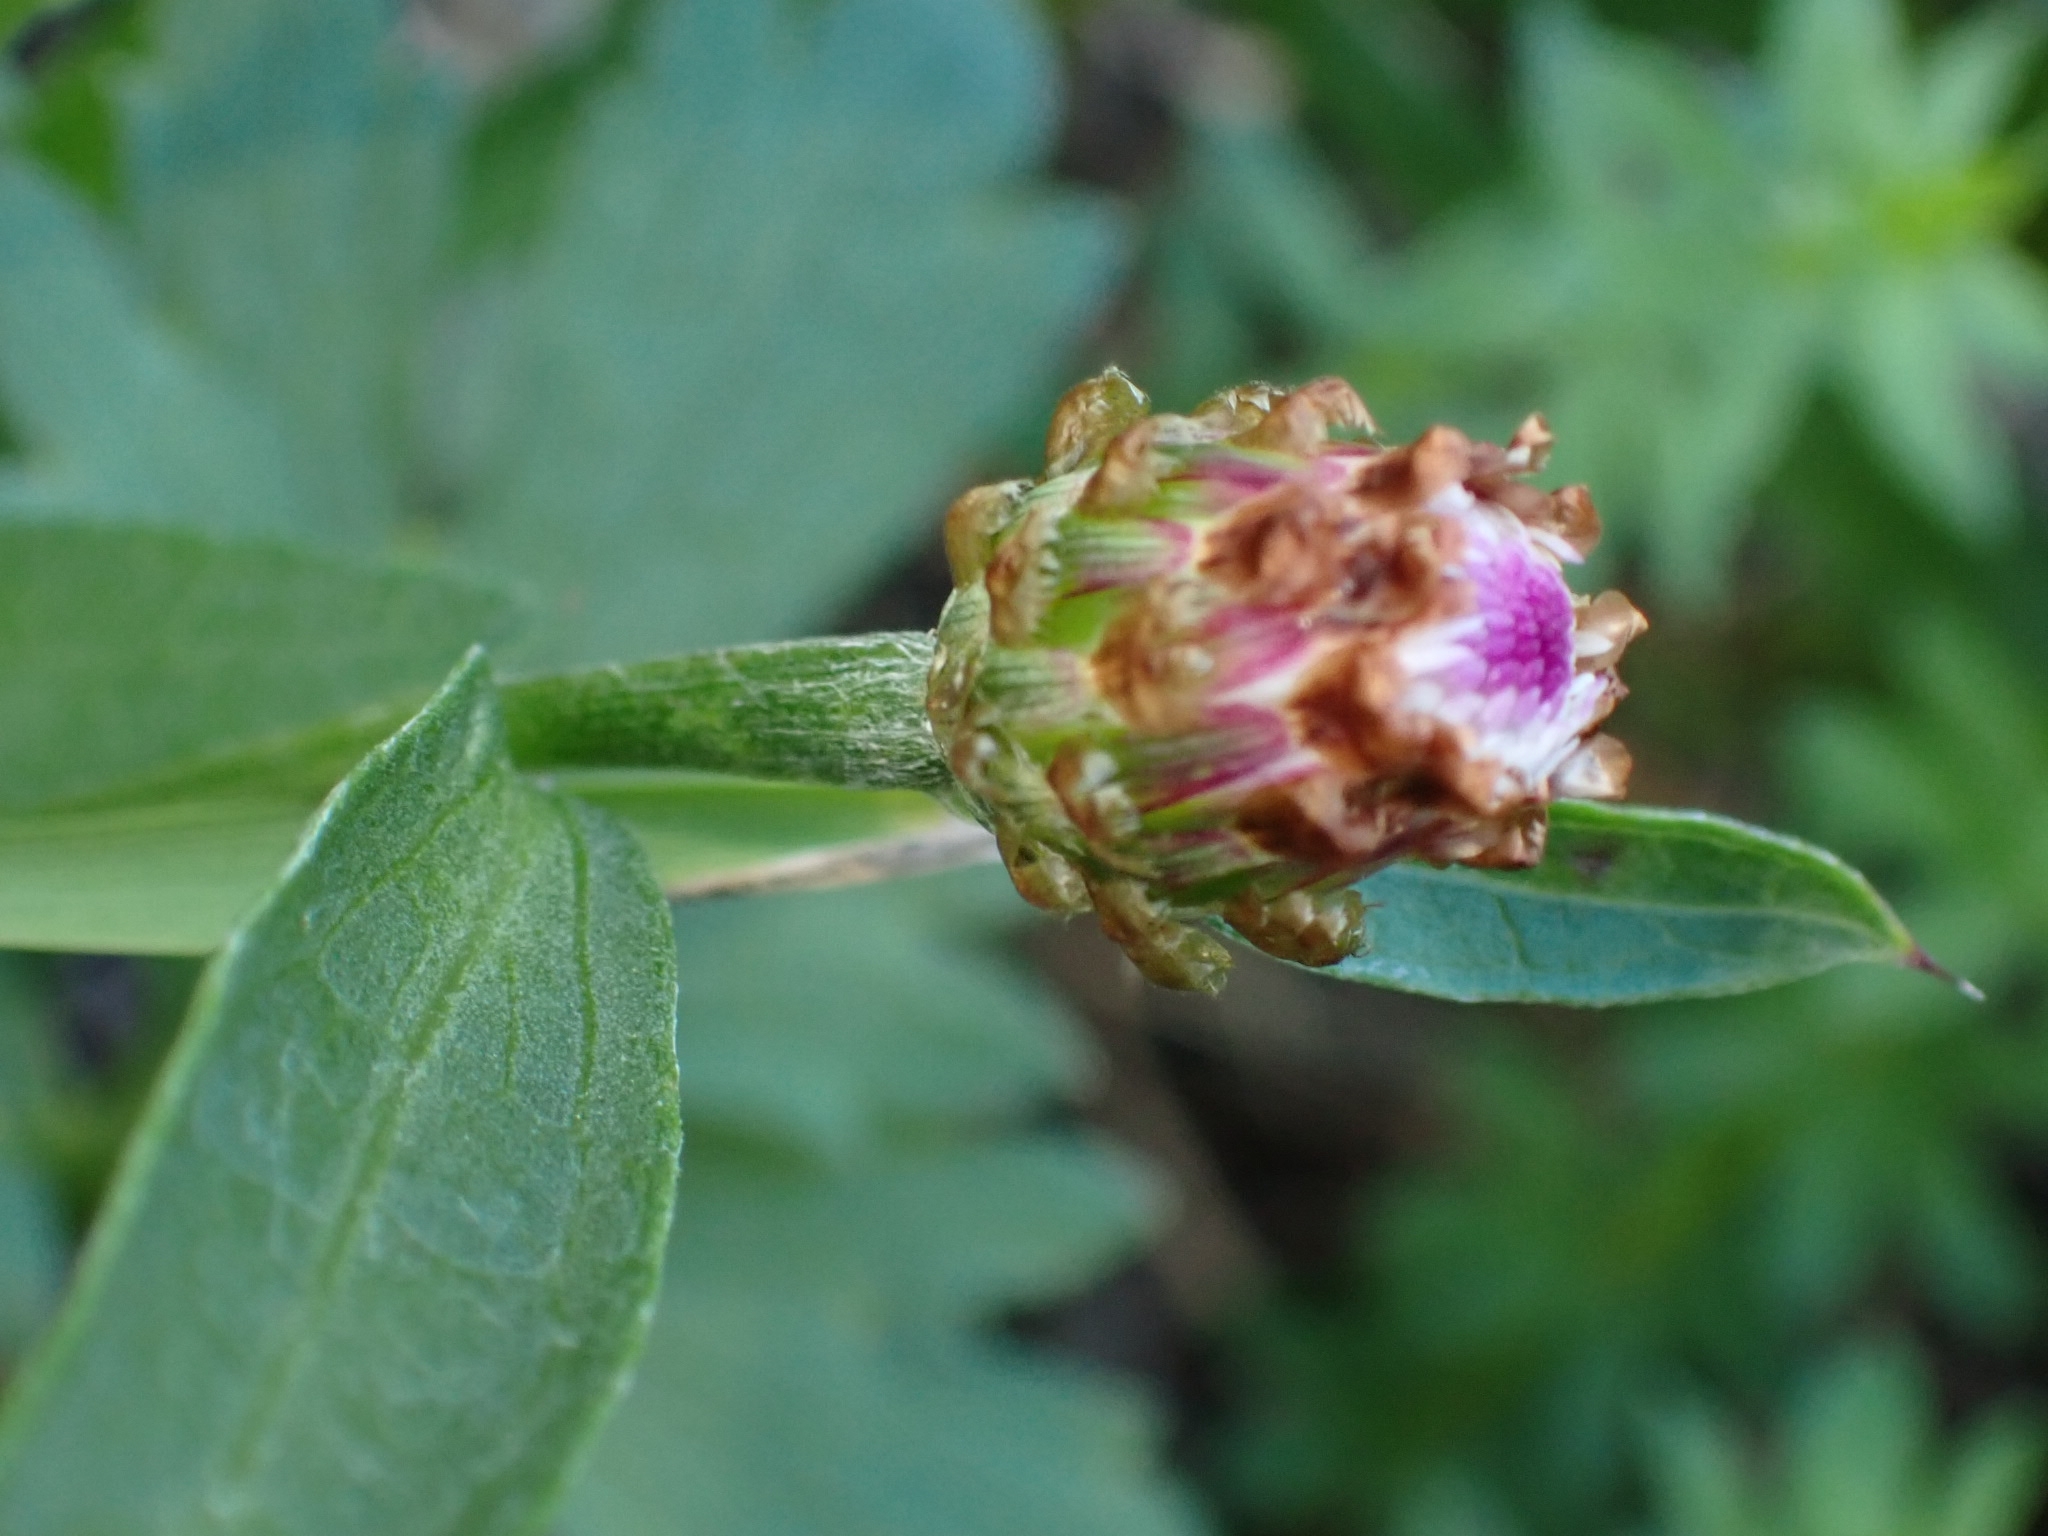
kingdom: Plantae
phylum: Tracheophyta
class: Magnoliopsida
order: Asterales
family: Asteraceae
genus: Centaurea
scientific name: Centaurea jacea
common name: Brown knapweed
